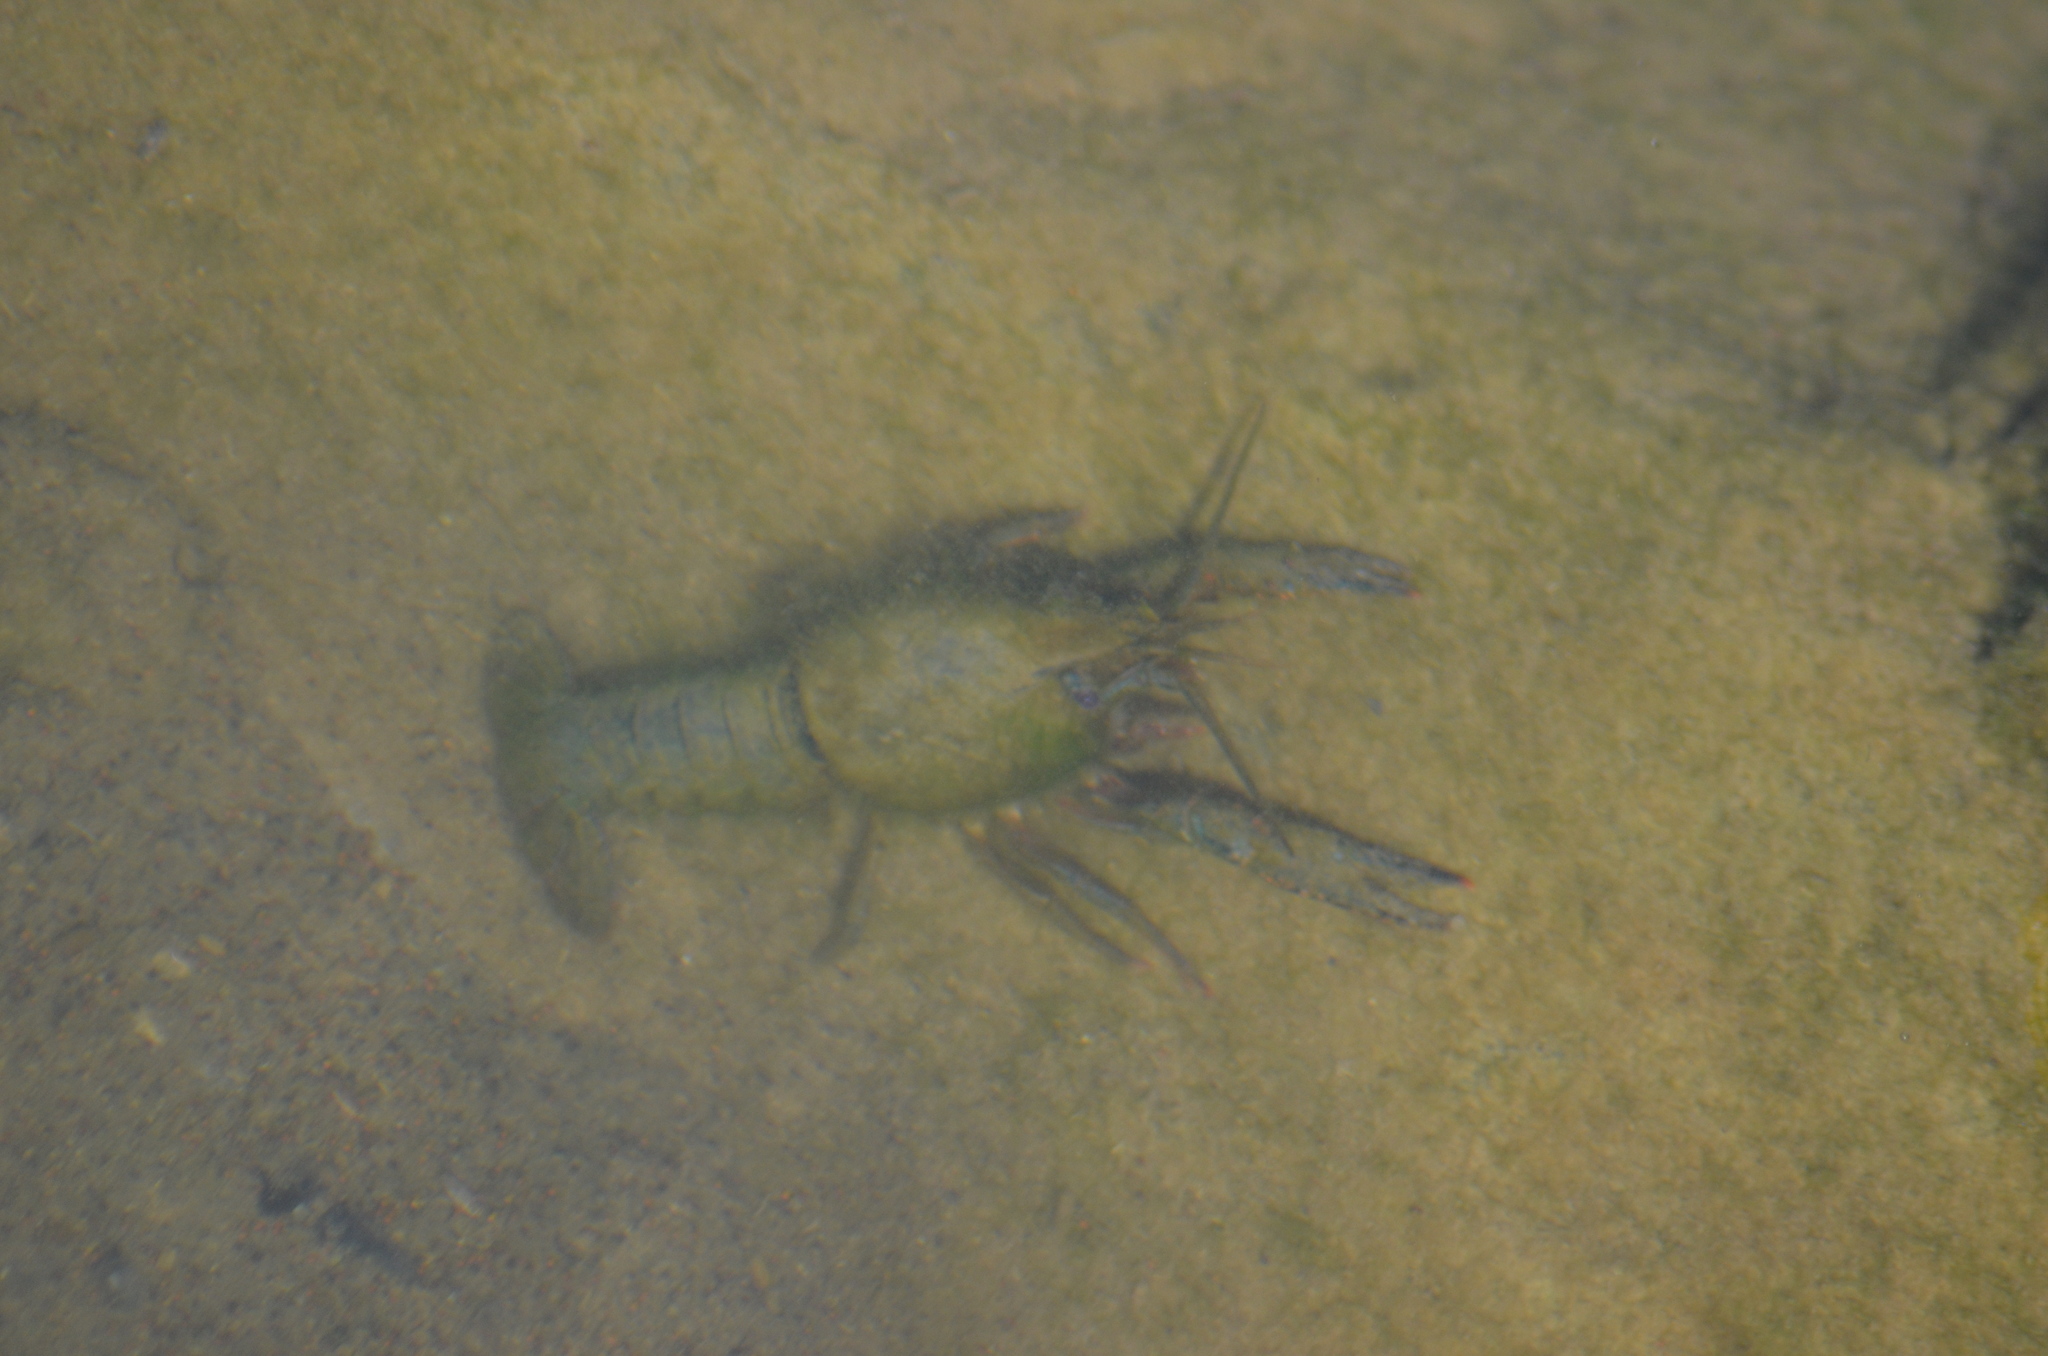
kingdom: Animalia
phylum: Arthropoda
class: Malacostraca
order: Decapoda
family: Cambaridae
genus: Procambarus
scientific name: Procambarus clarkii
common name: Red swamp crayfish
